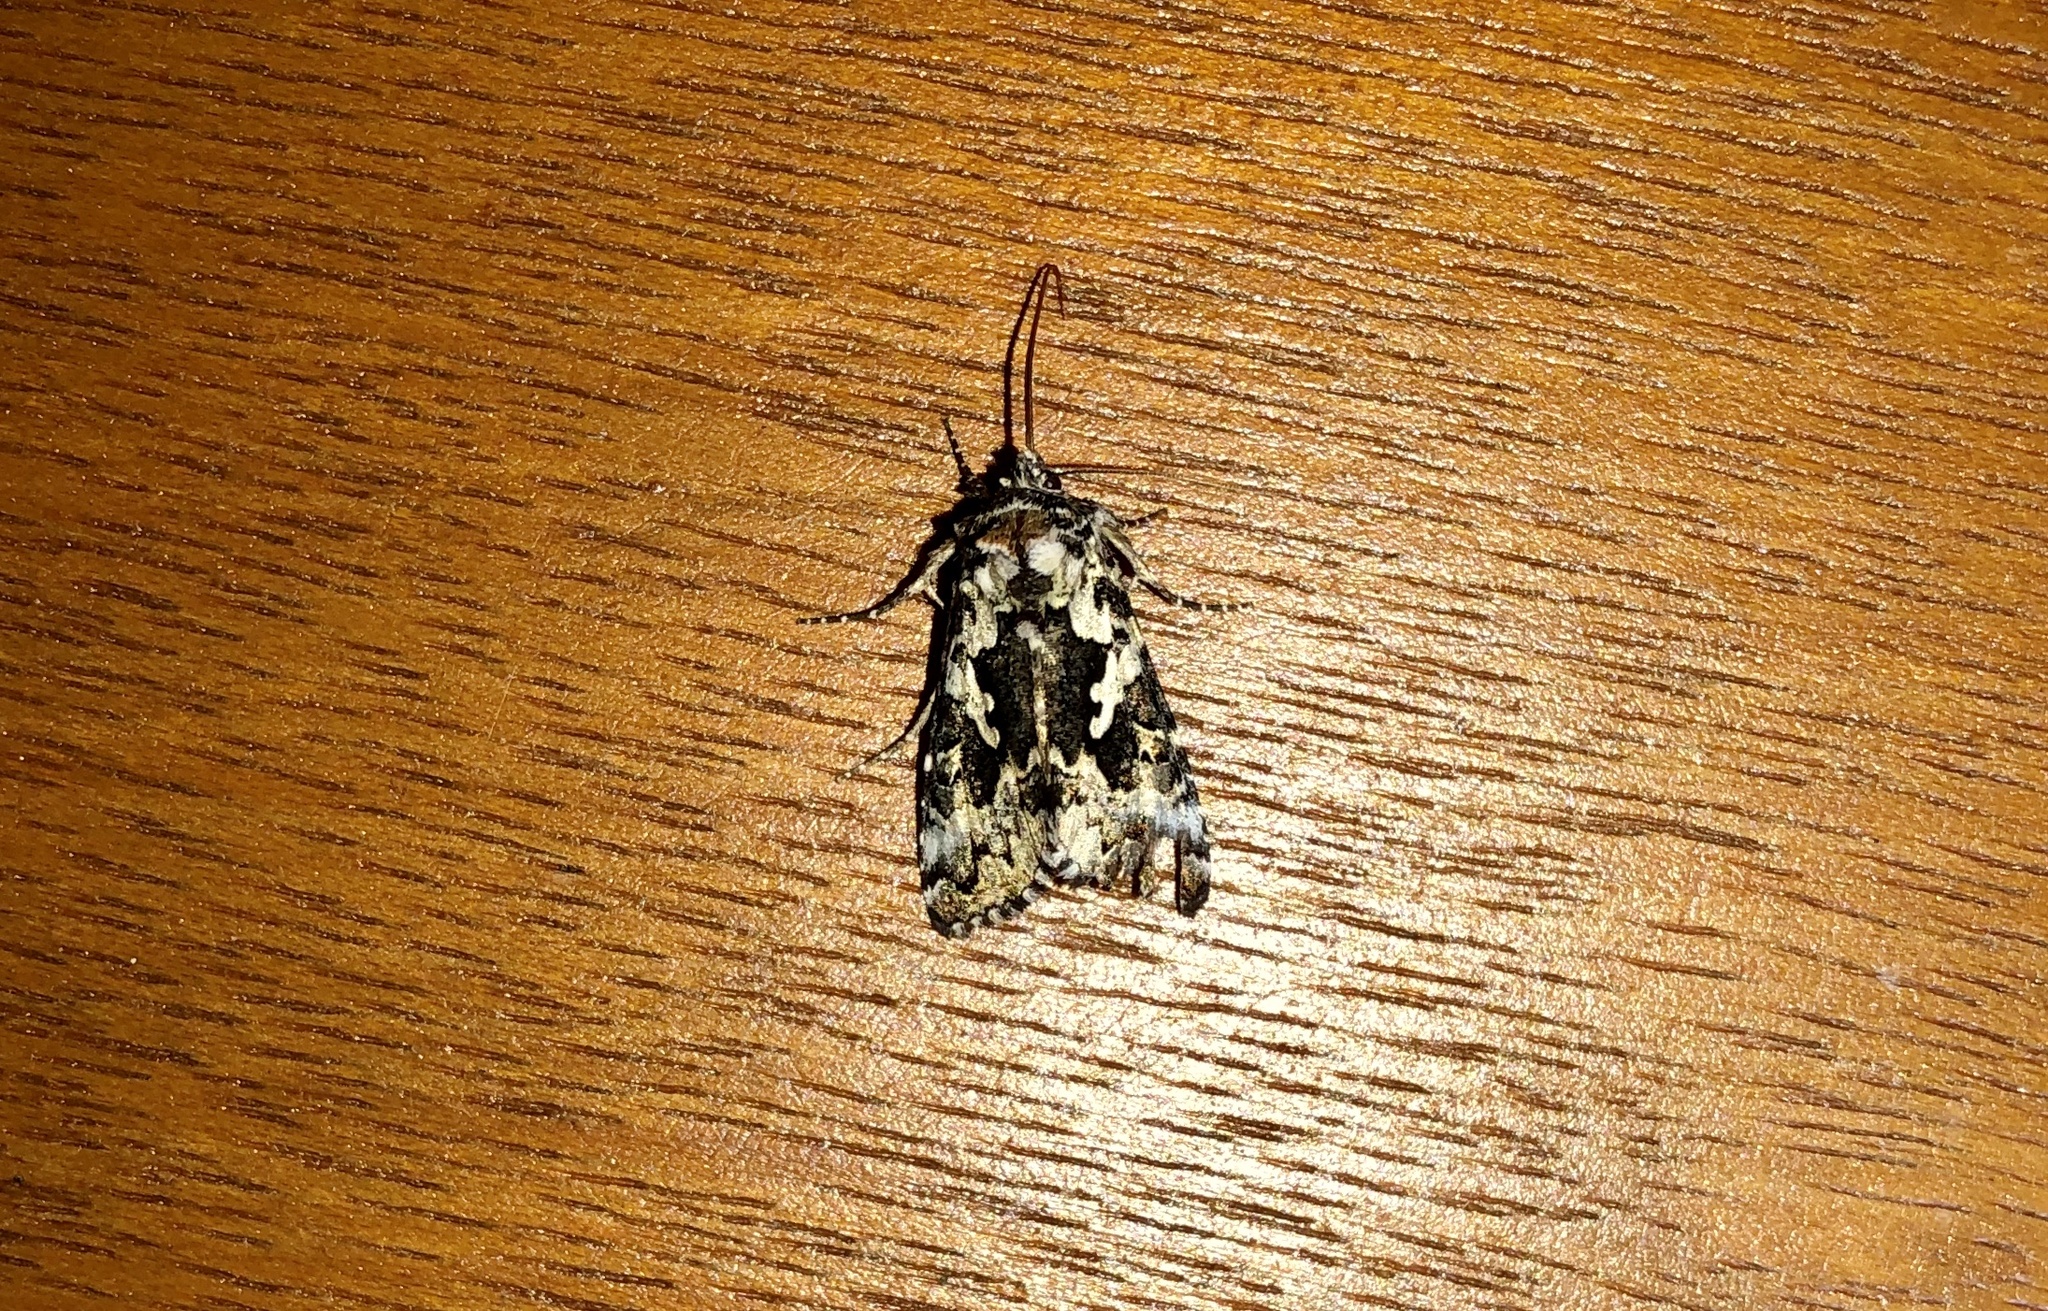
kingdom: Animalia
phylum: Arthropoda
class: Insecta
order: Lepidoptera
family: Noctuidae
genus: Syngrapha
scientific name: Syngrapha rectangula
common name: Angulated cutworm
